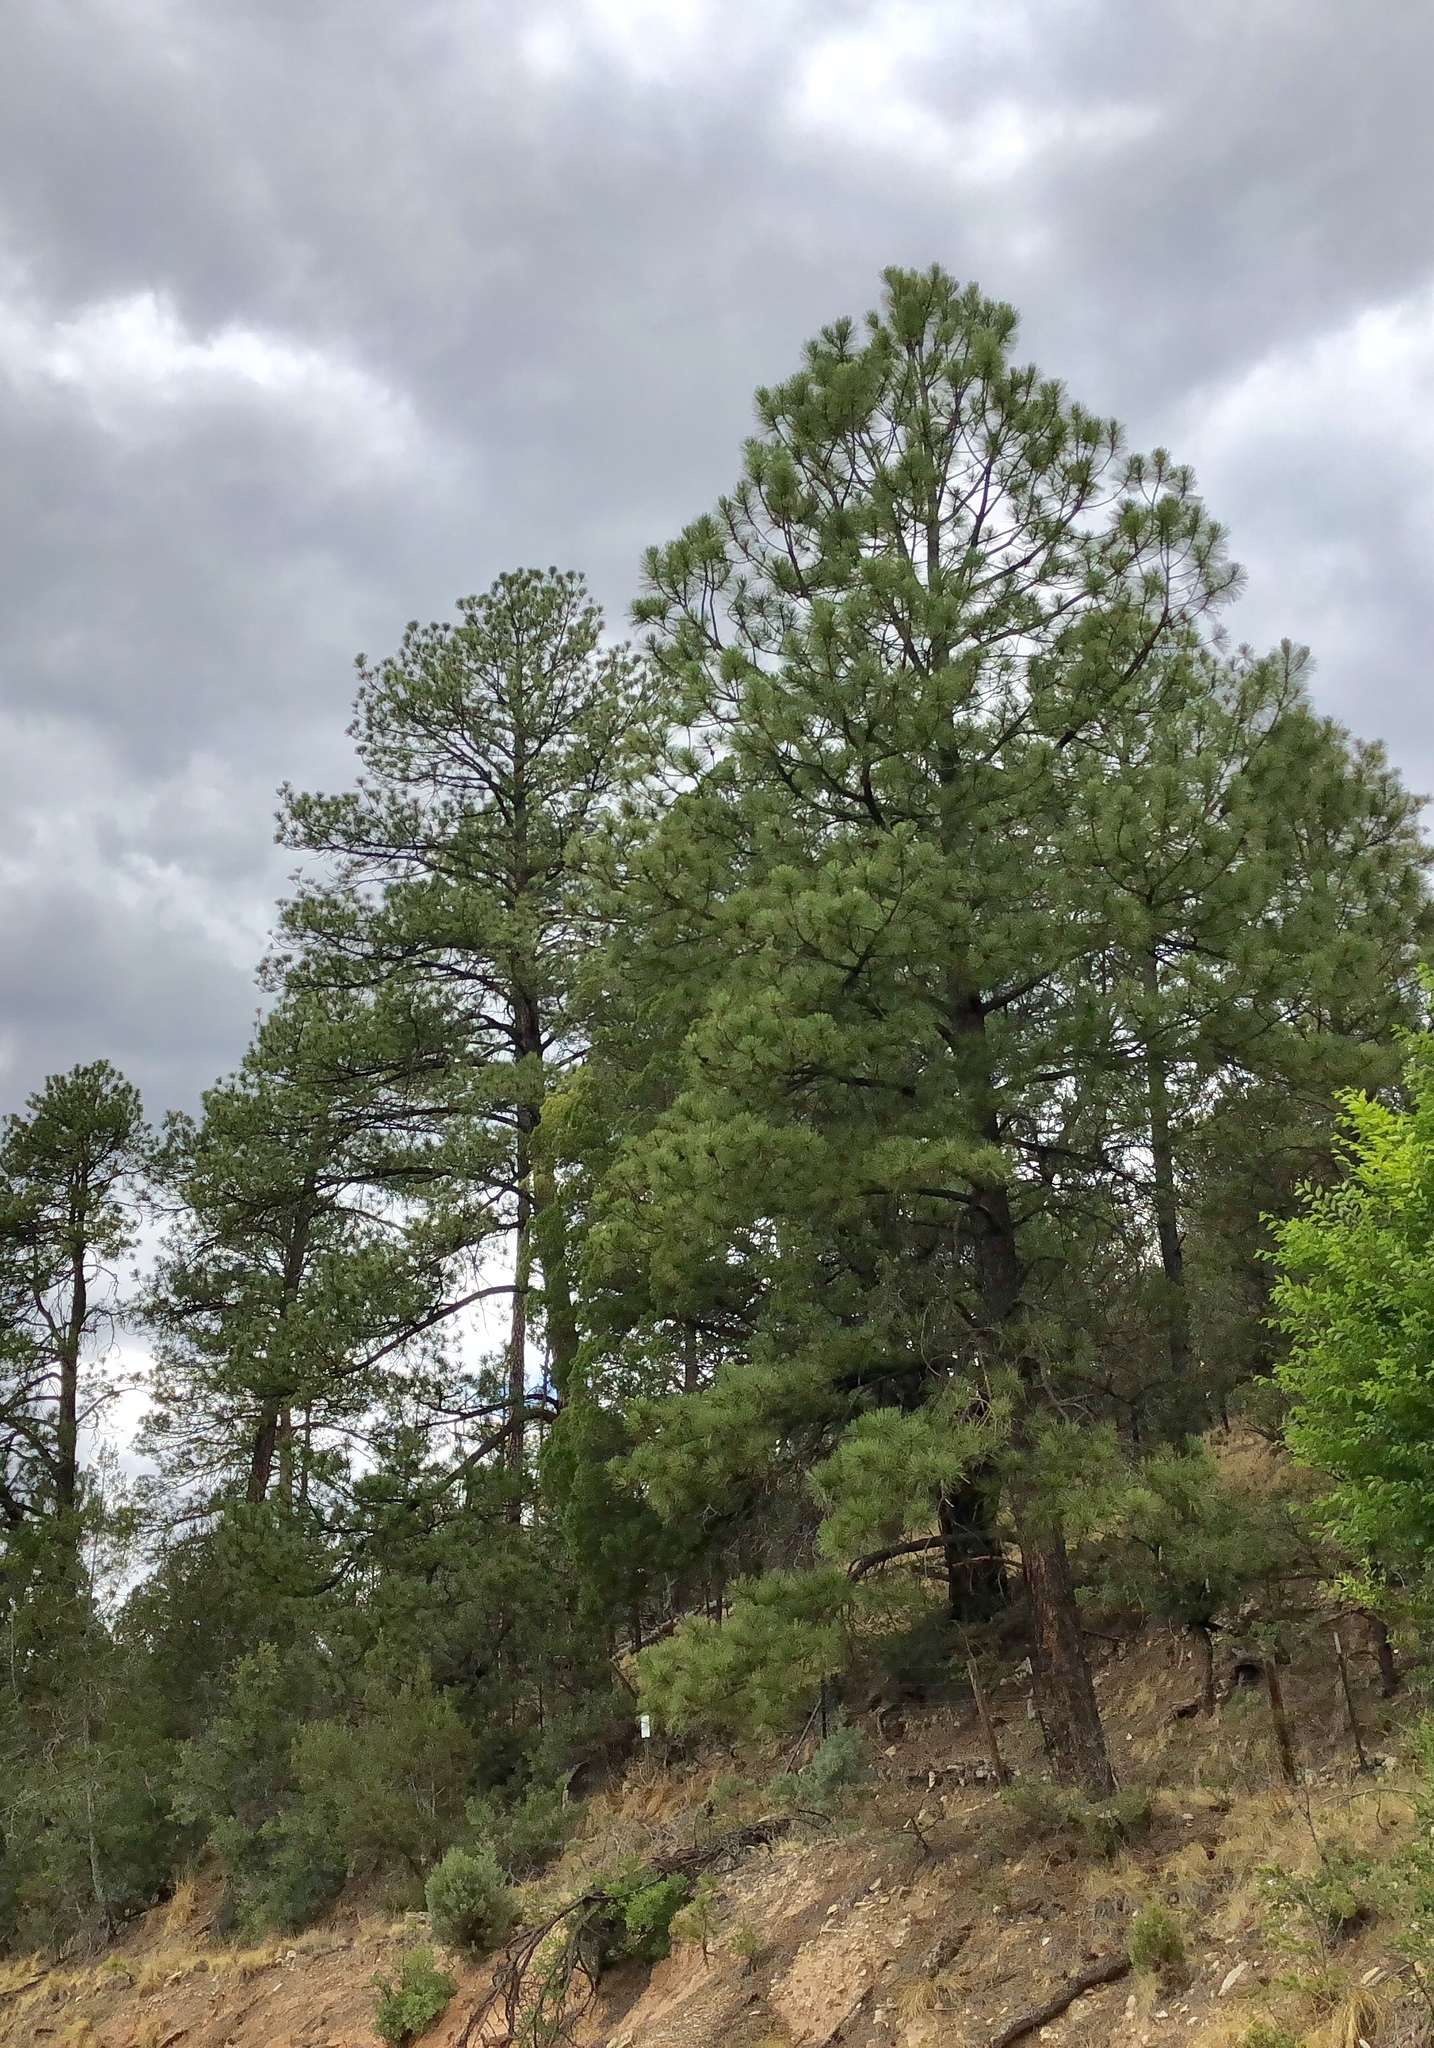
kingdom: Plantae
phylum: Tracheophyta
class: Pinopsida
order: Pinales
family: Pinaceae
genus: Pinus
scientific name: Pinus ponderosa
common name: Western yellow-pine
